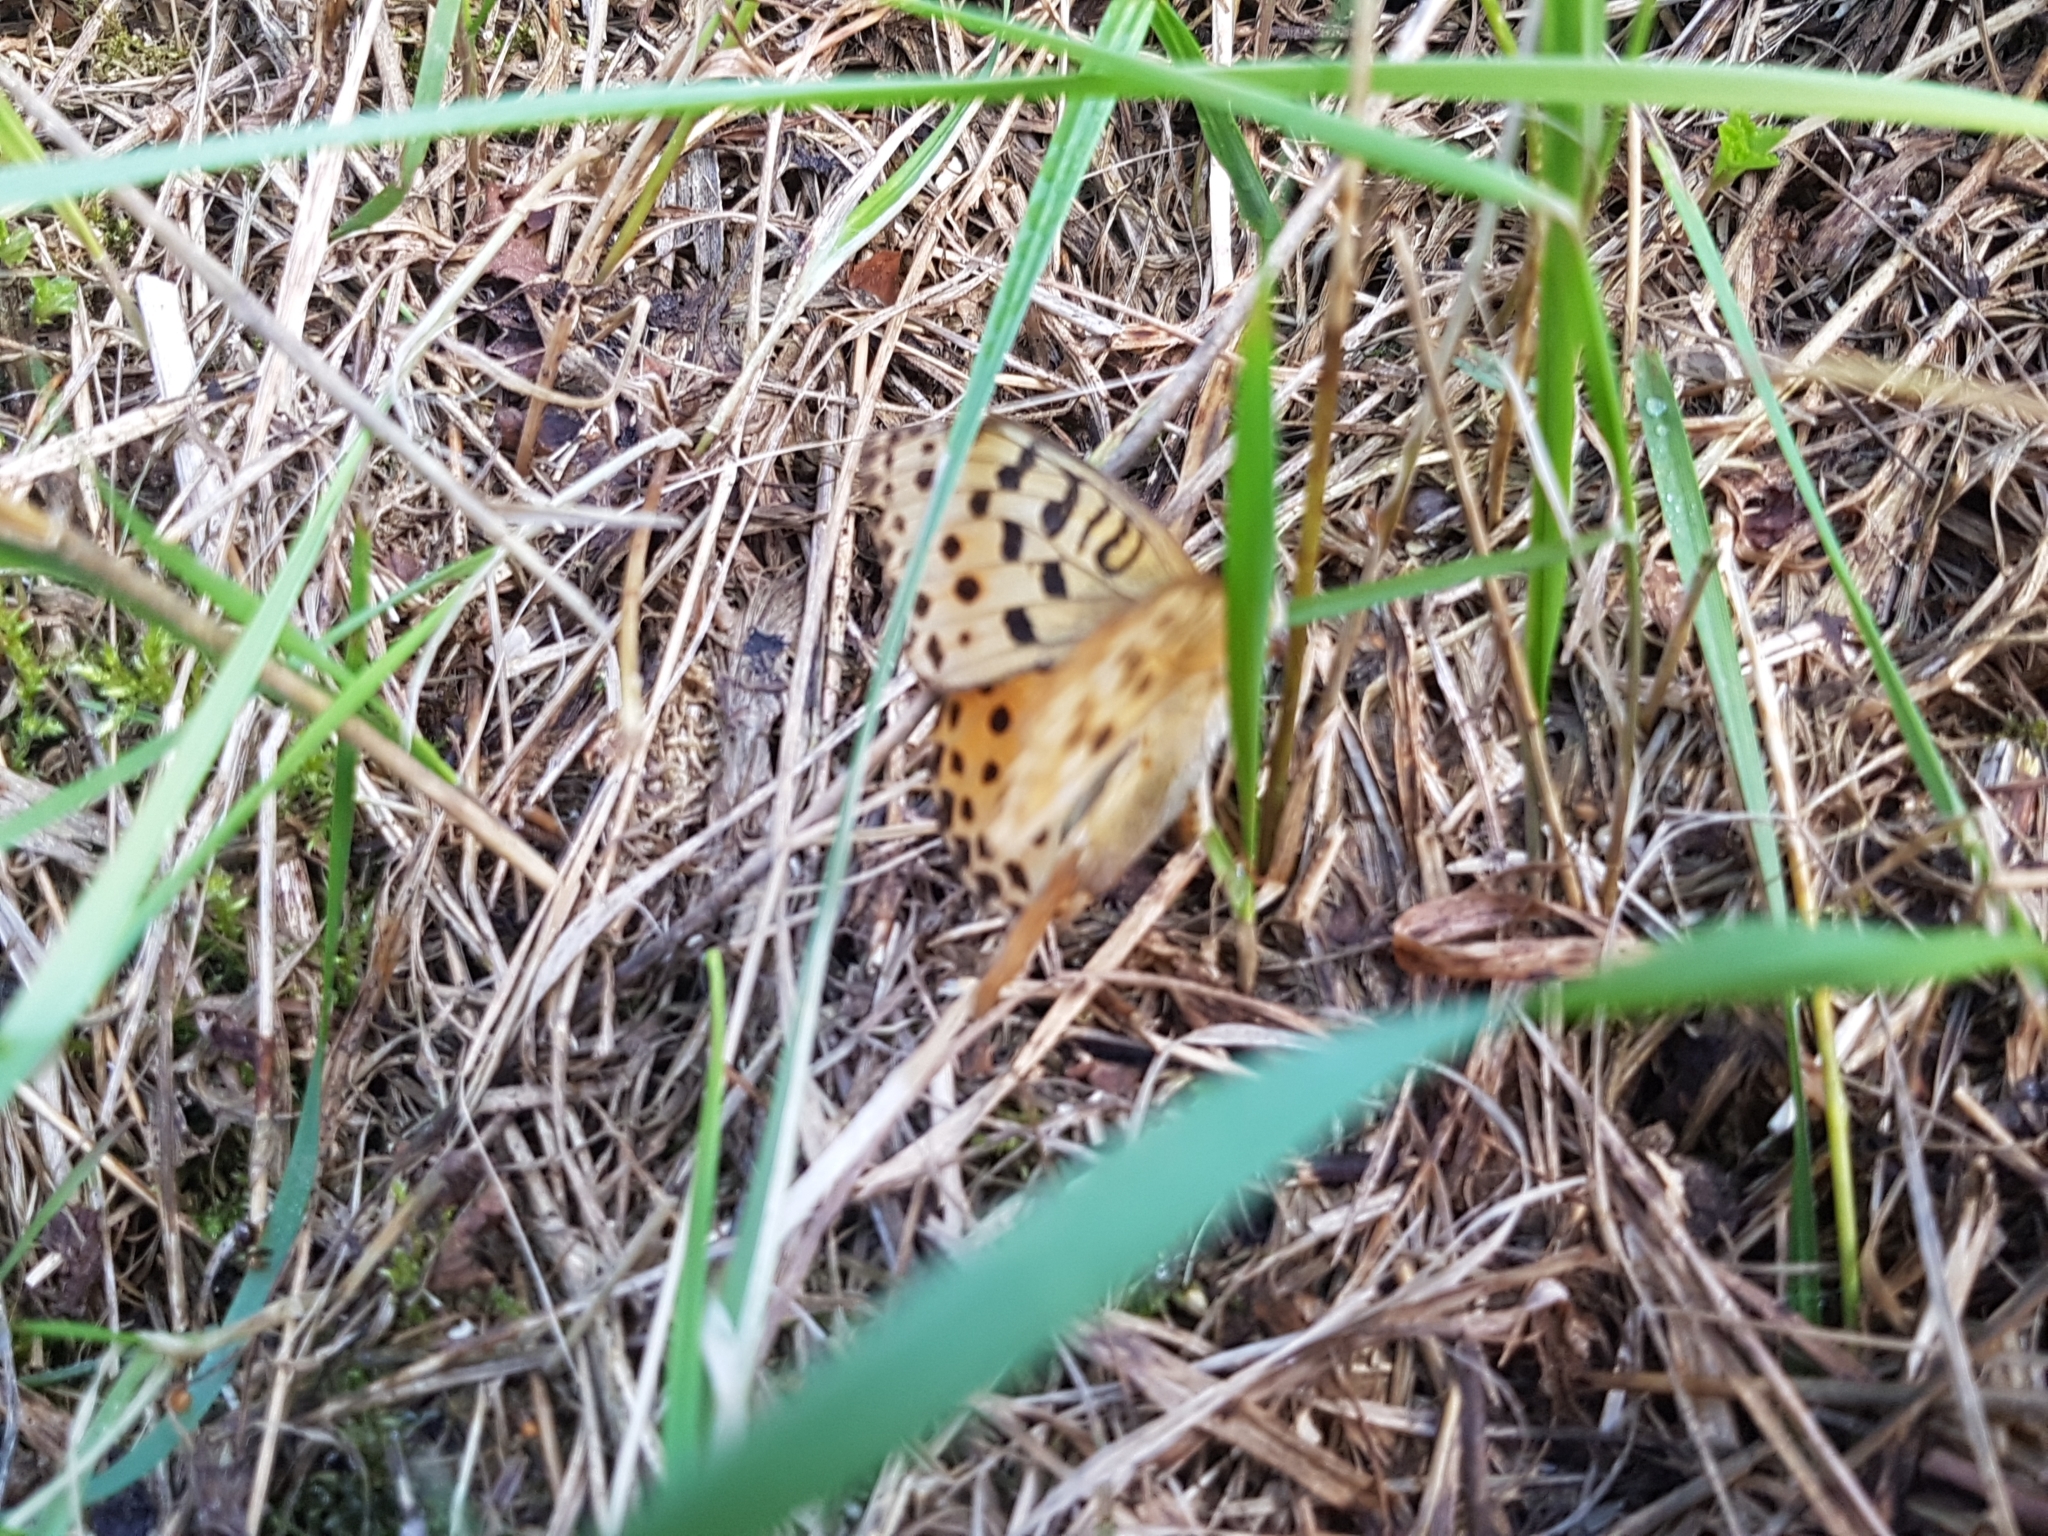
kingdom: Animalia
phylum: Arthropoda
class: Insecta
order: Lepidoptera
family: Nymphalidae
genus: Argyronome
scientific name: Argyronome laodice
